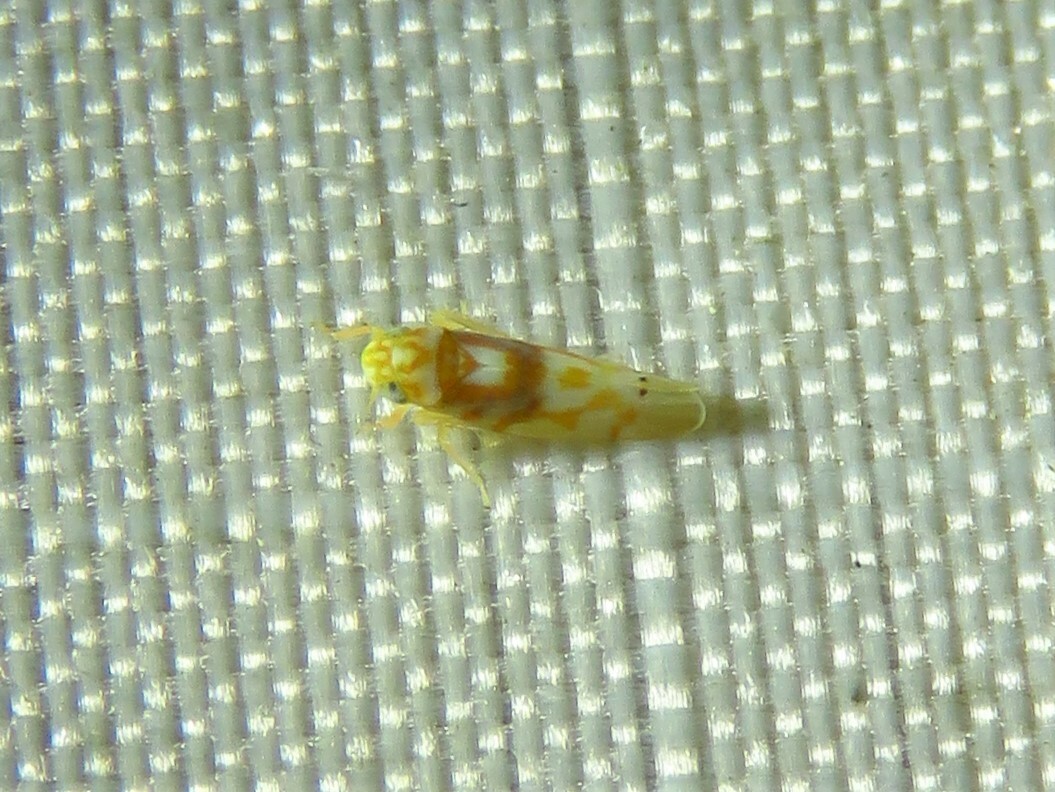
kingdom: Animalia
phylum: Arthropoda
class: Insecta
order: Hemiptera
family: Cicadellidae
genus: Eratoneura
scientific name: Eratoneura affinis
